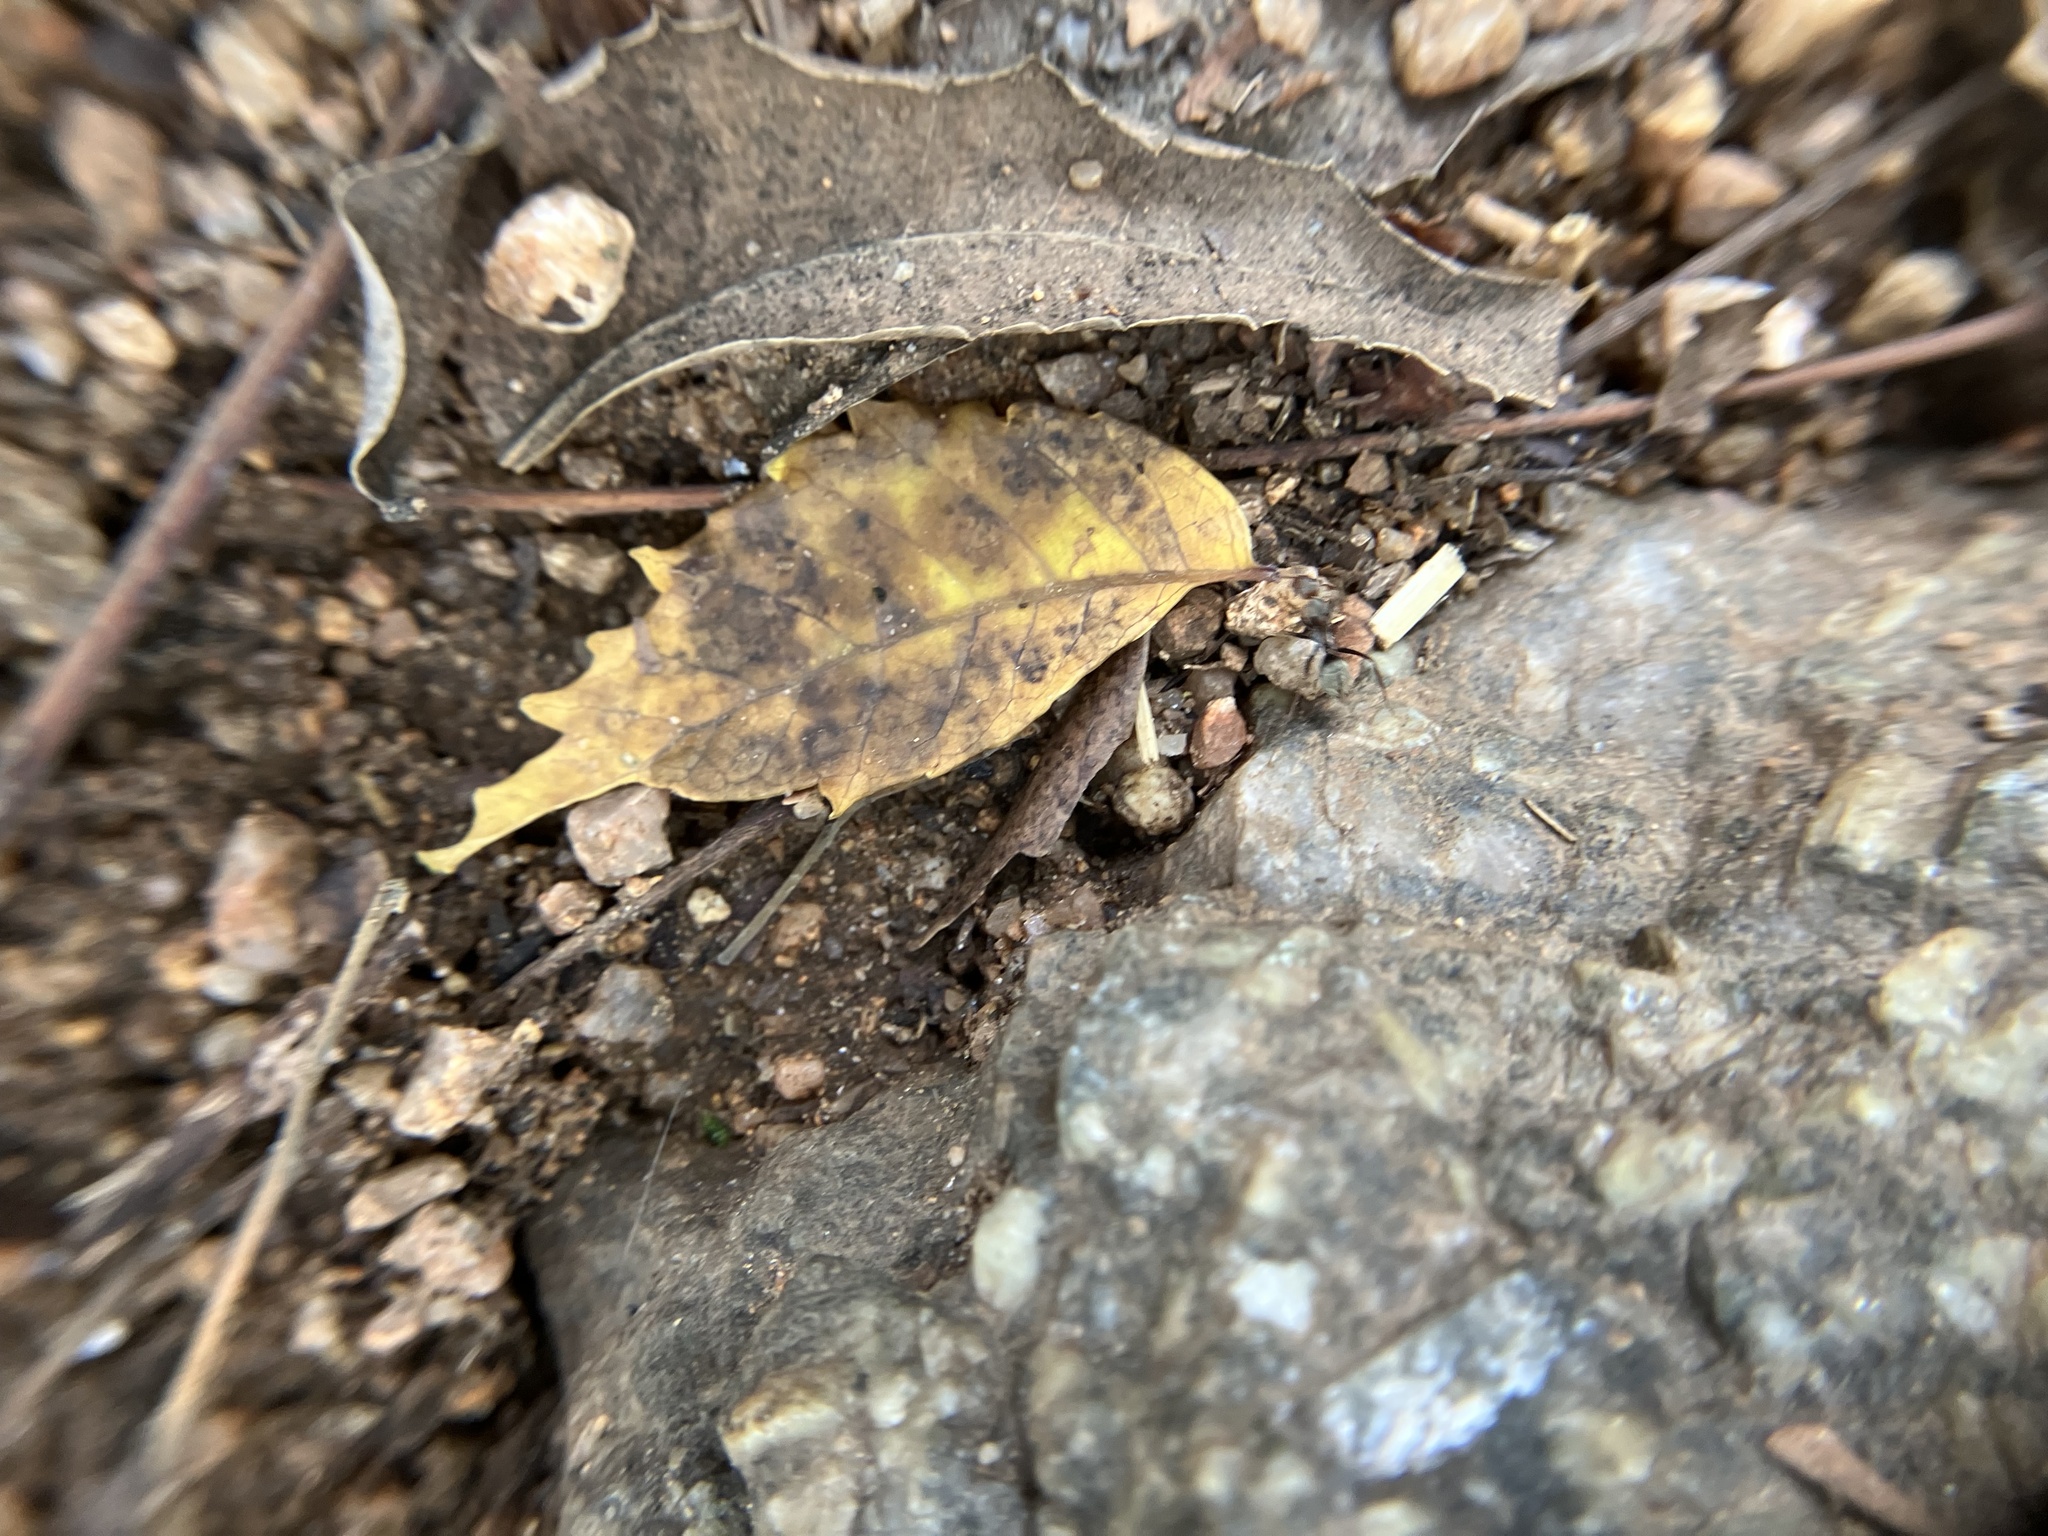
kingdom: Animalia
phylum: Arthropoda
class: Insecta
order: Hymenoptera
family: Formicidae
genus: Camponotus
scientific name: Camponotus rufoglaucus
